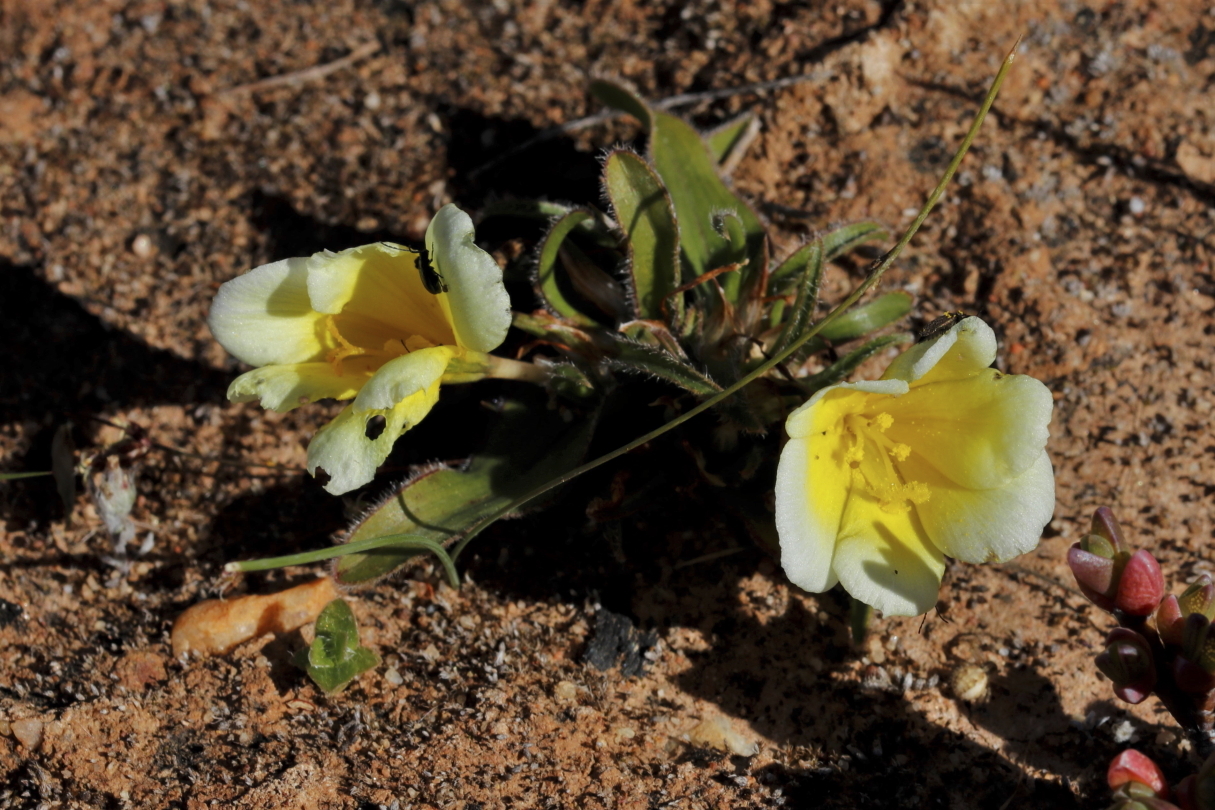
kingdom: Plantae
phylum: Tracheophyta
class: Liliopsida
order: Asparagales
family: Iridaceae
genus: Moraea
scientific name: Moraea luteoalba
